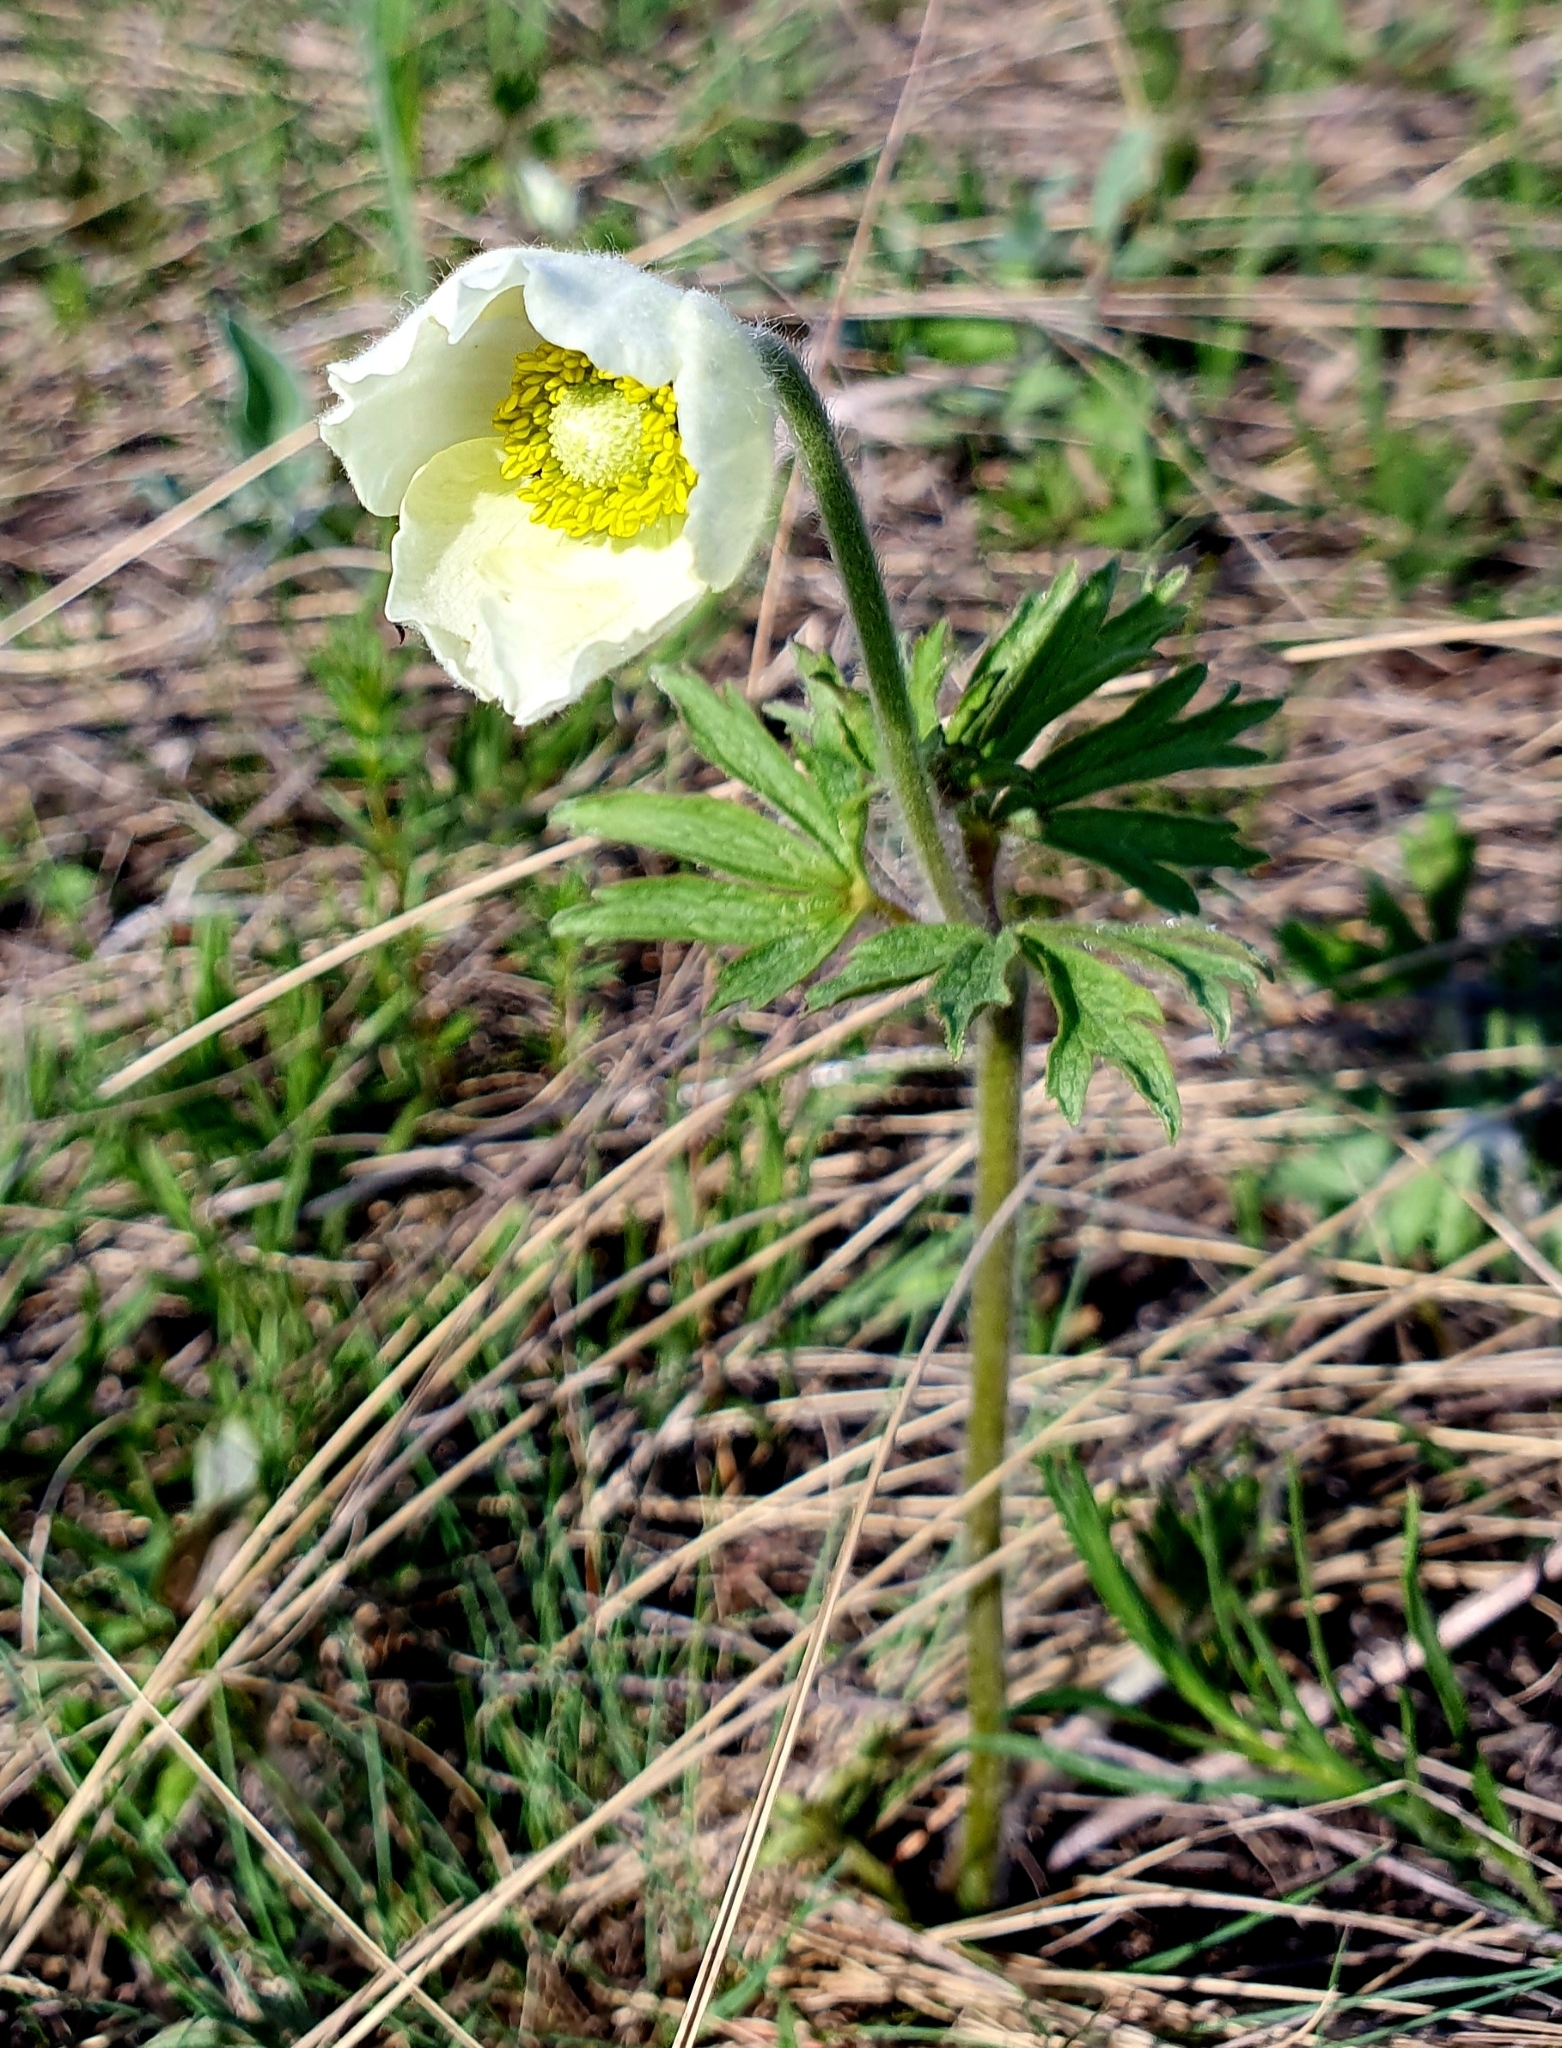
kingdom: Plantae
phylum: Tracheophyta
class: Magnoliopsida
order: Ranunculales
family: Ranunculaceae
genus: Anemone
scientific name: Anemone sylvestris
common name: Snowdrop anemone
